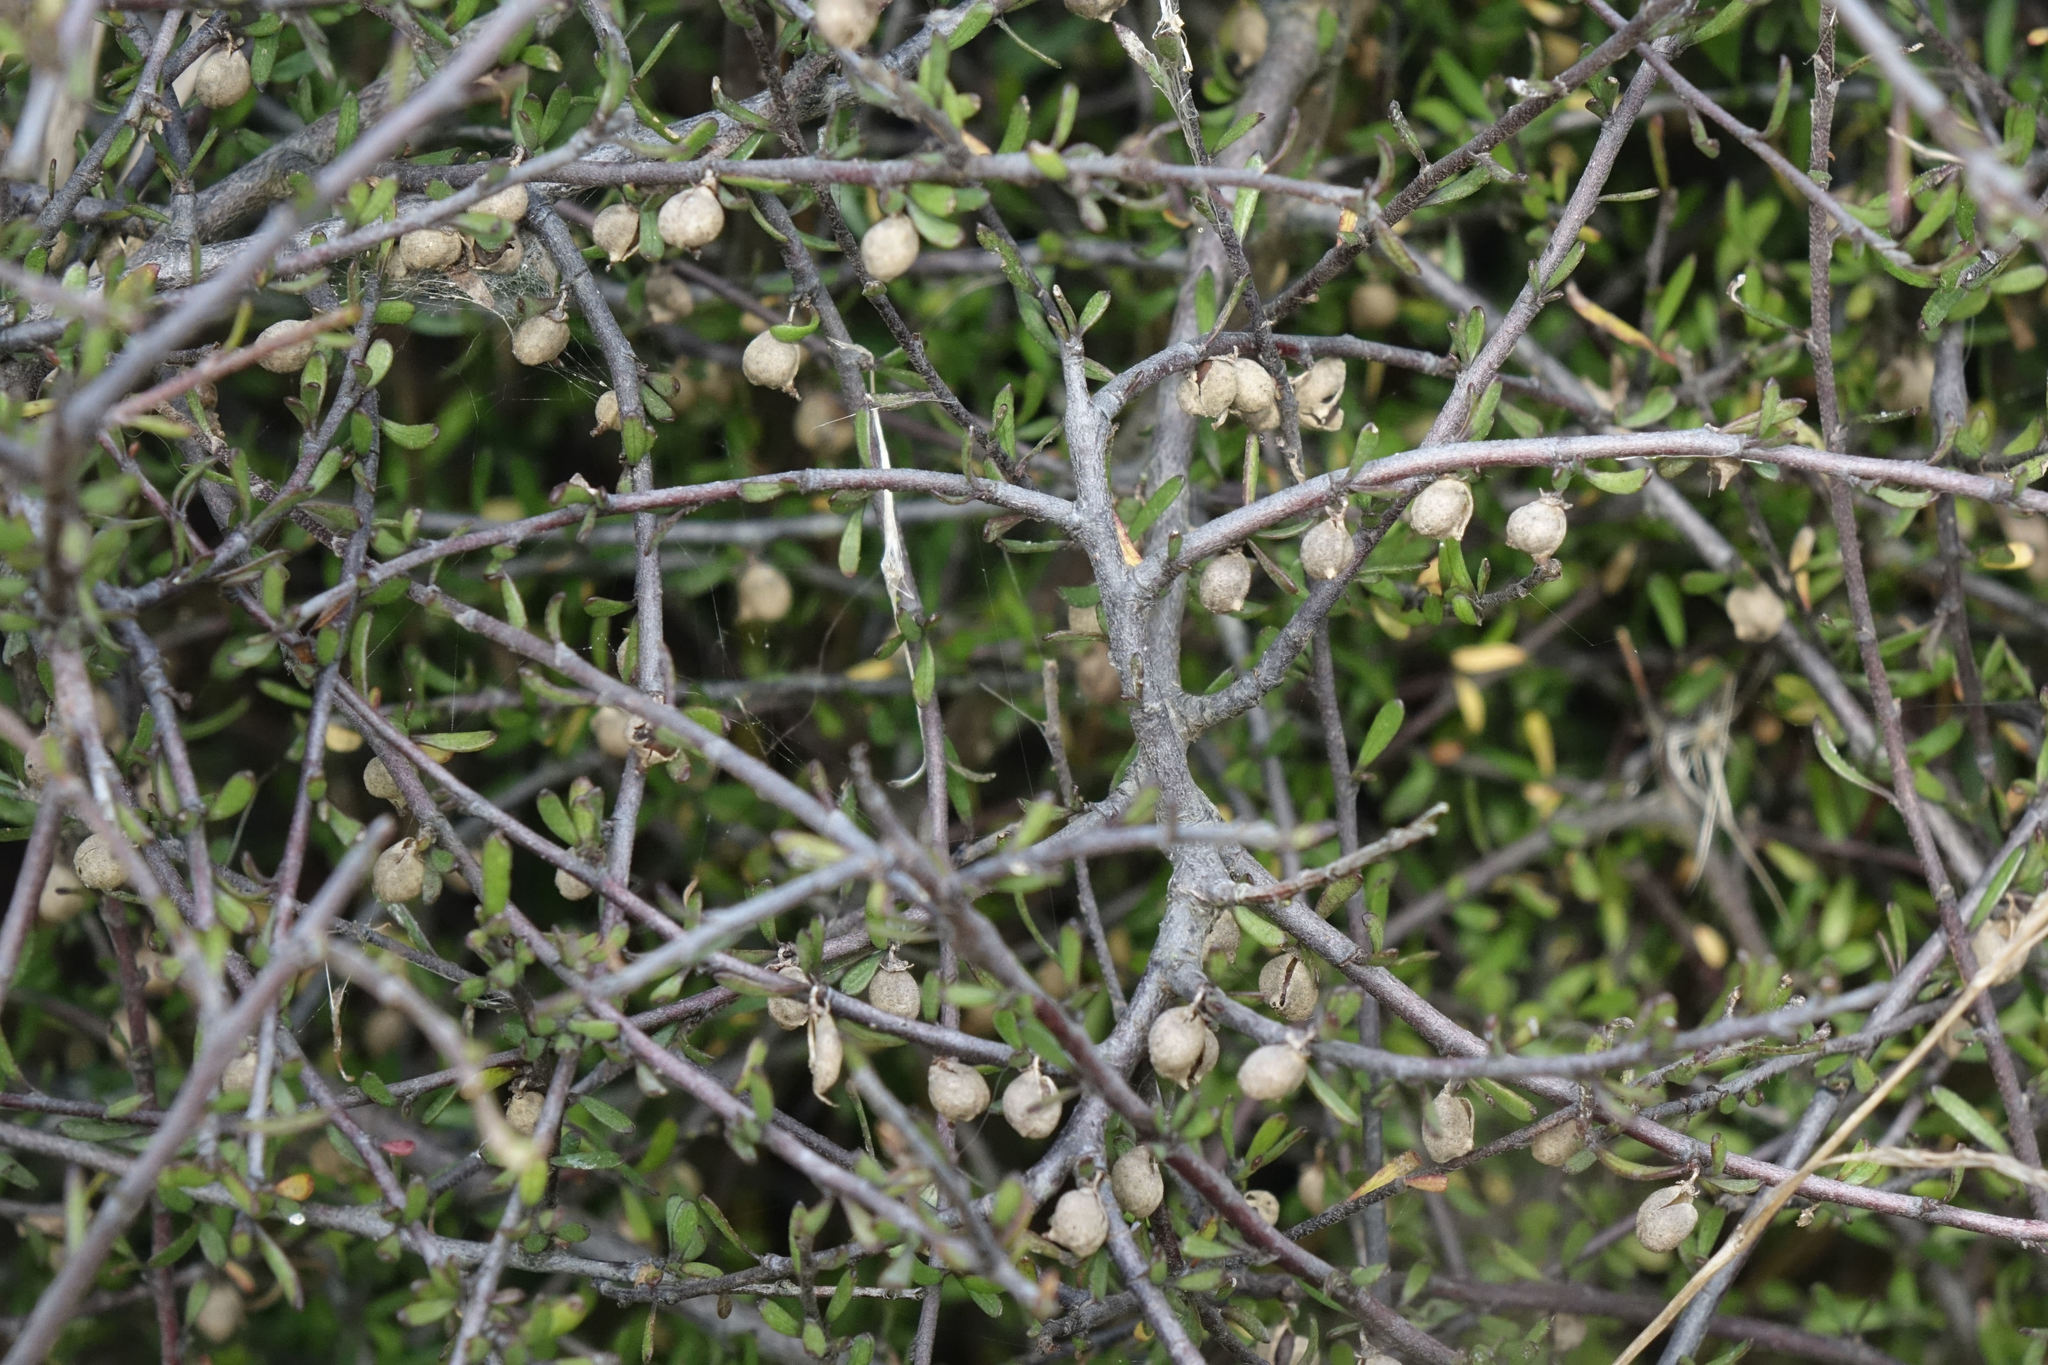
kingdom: Plantae
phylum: Tracheophyta
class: Magnoliopsida
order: Malvales
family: Malvaceae
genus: Plagianthus
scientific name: Plagianthus divaricatus
